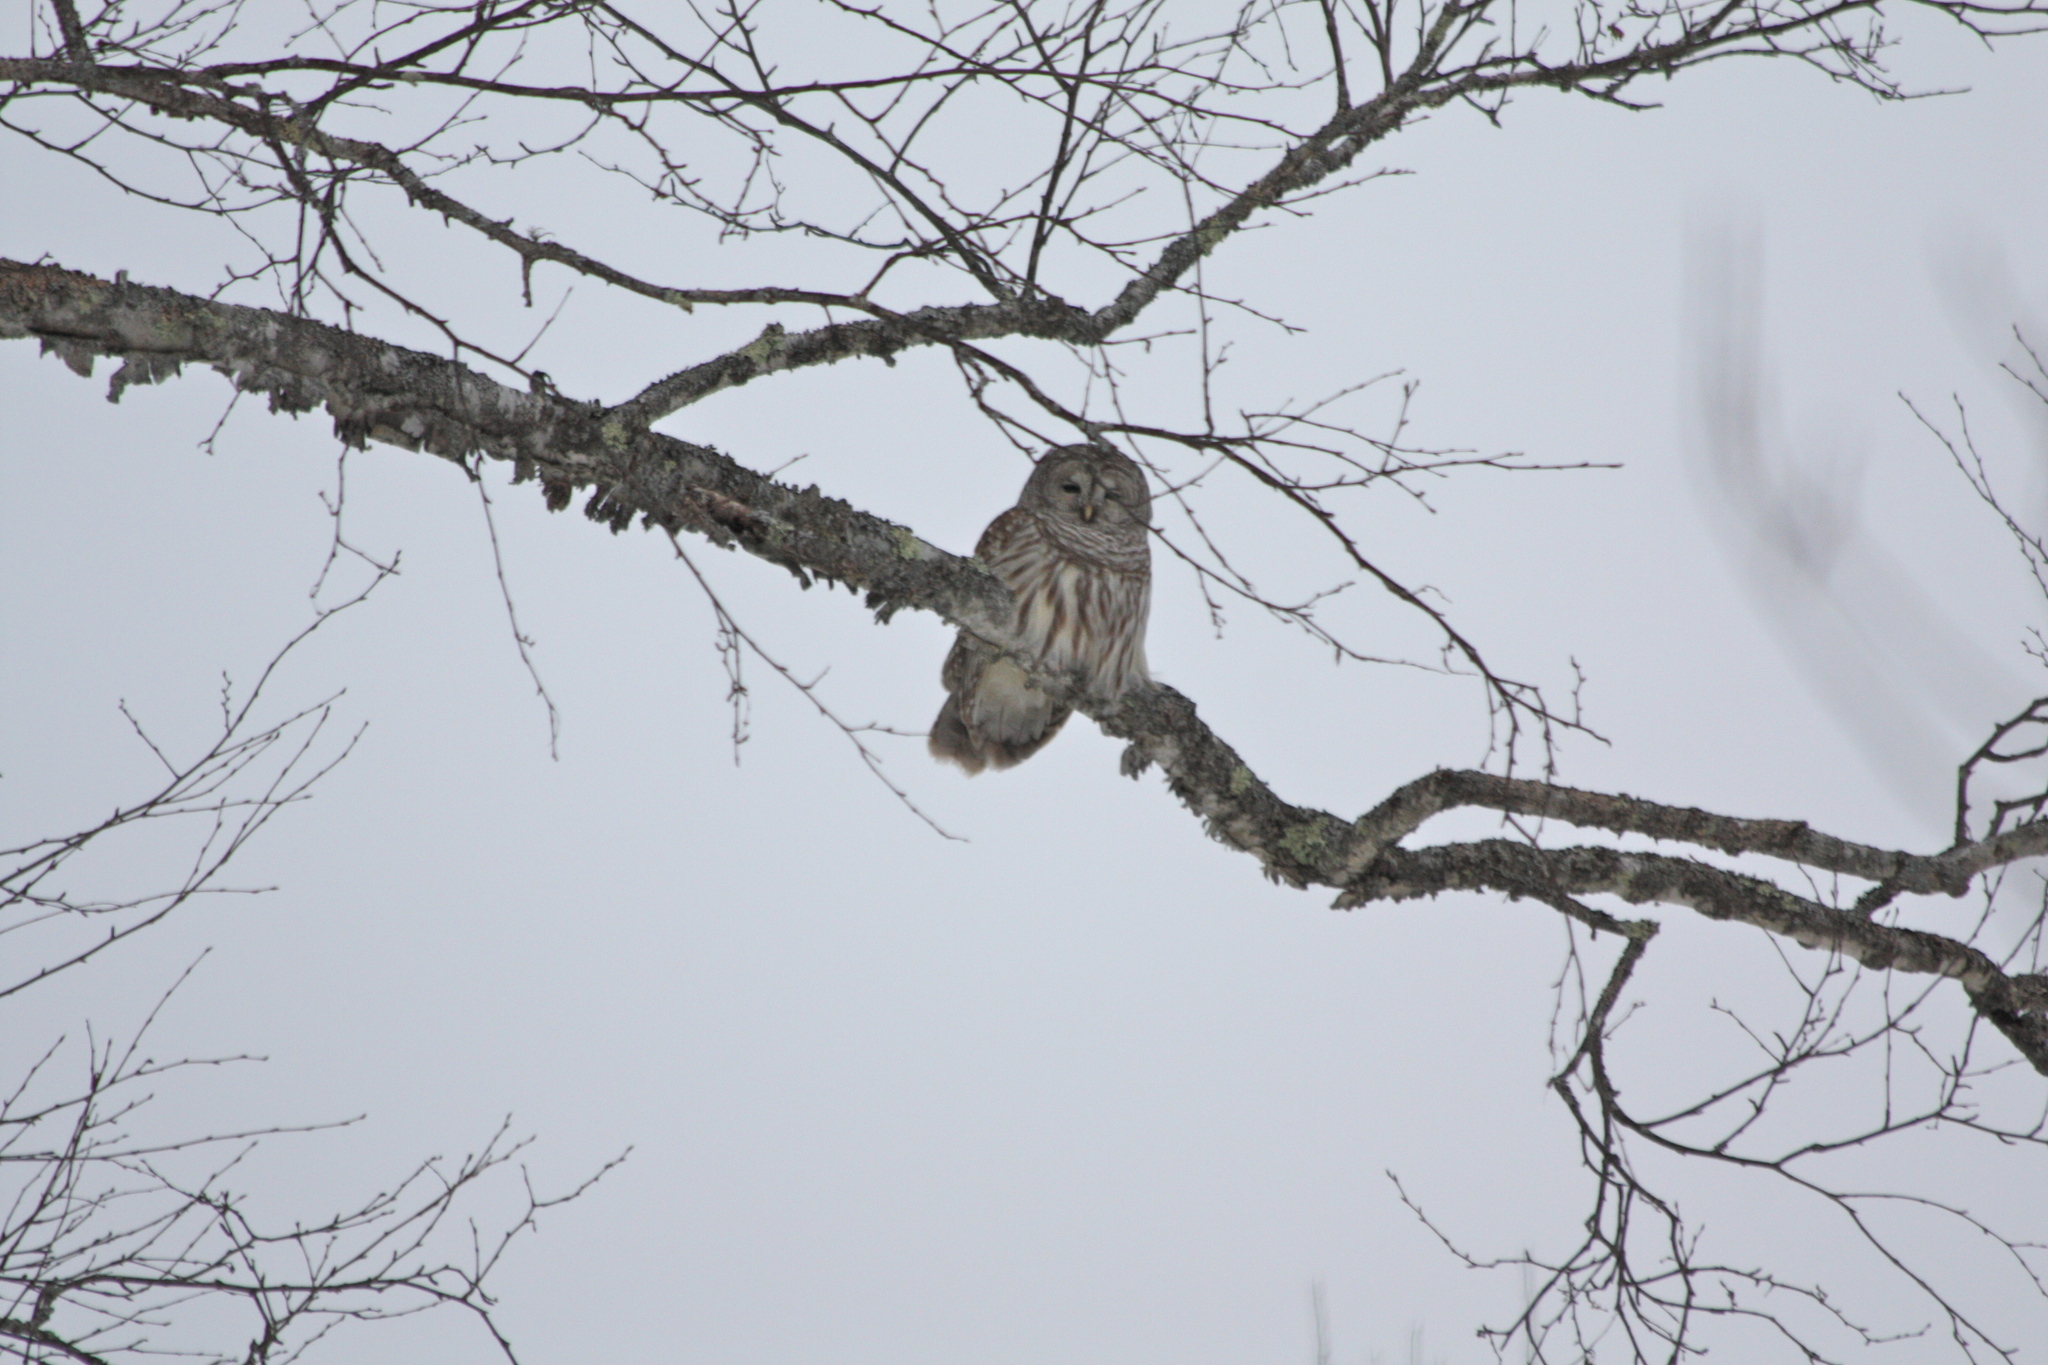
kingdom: Animalia
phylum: Chordata
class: Aves
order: Strigiformes
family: Strigidae
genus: Strix
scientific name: Strix varia
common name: Barred owl
